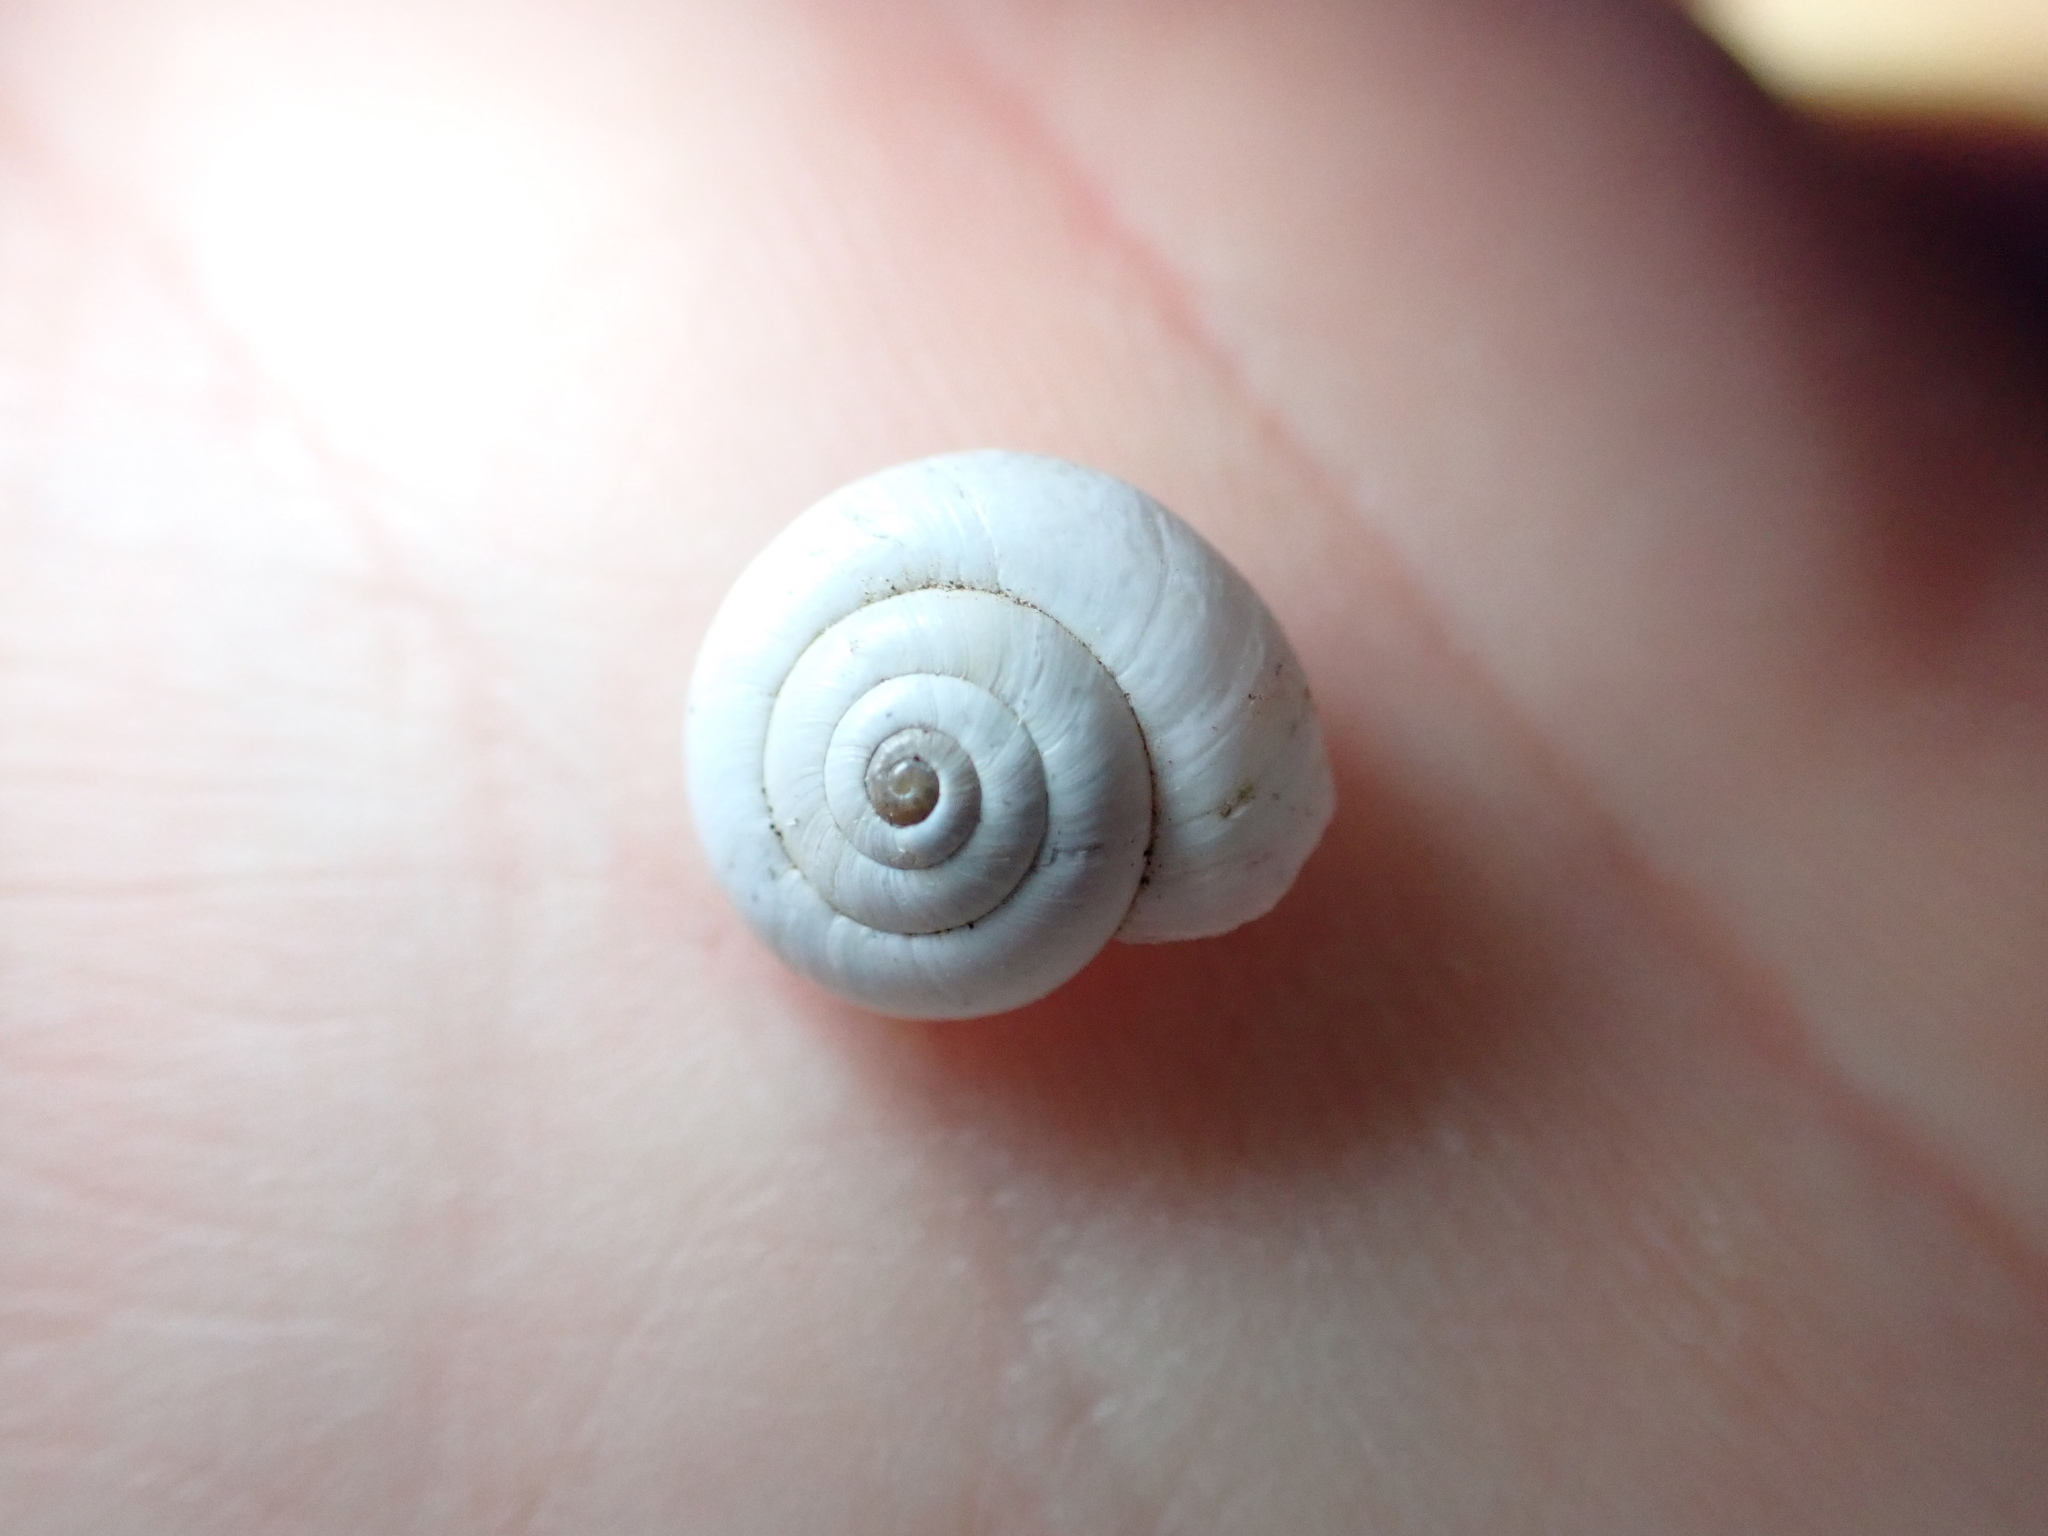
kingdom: Animalia
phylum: Mollusca
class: Gastropoda
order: Stylommatophora
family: Geomitridae
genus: Xeropicta
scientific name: Xeropicta derbentina
